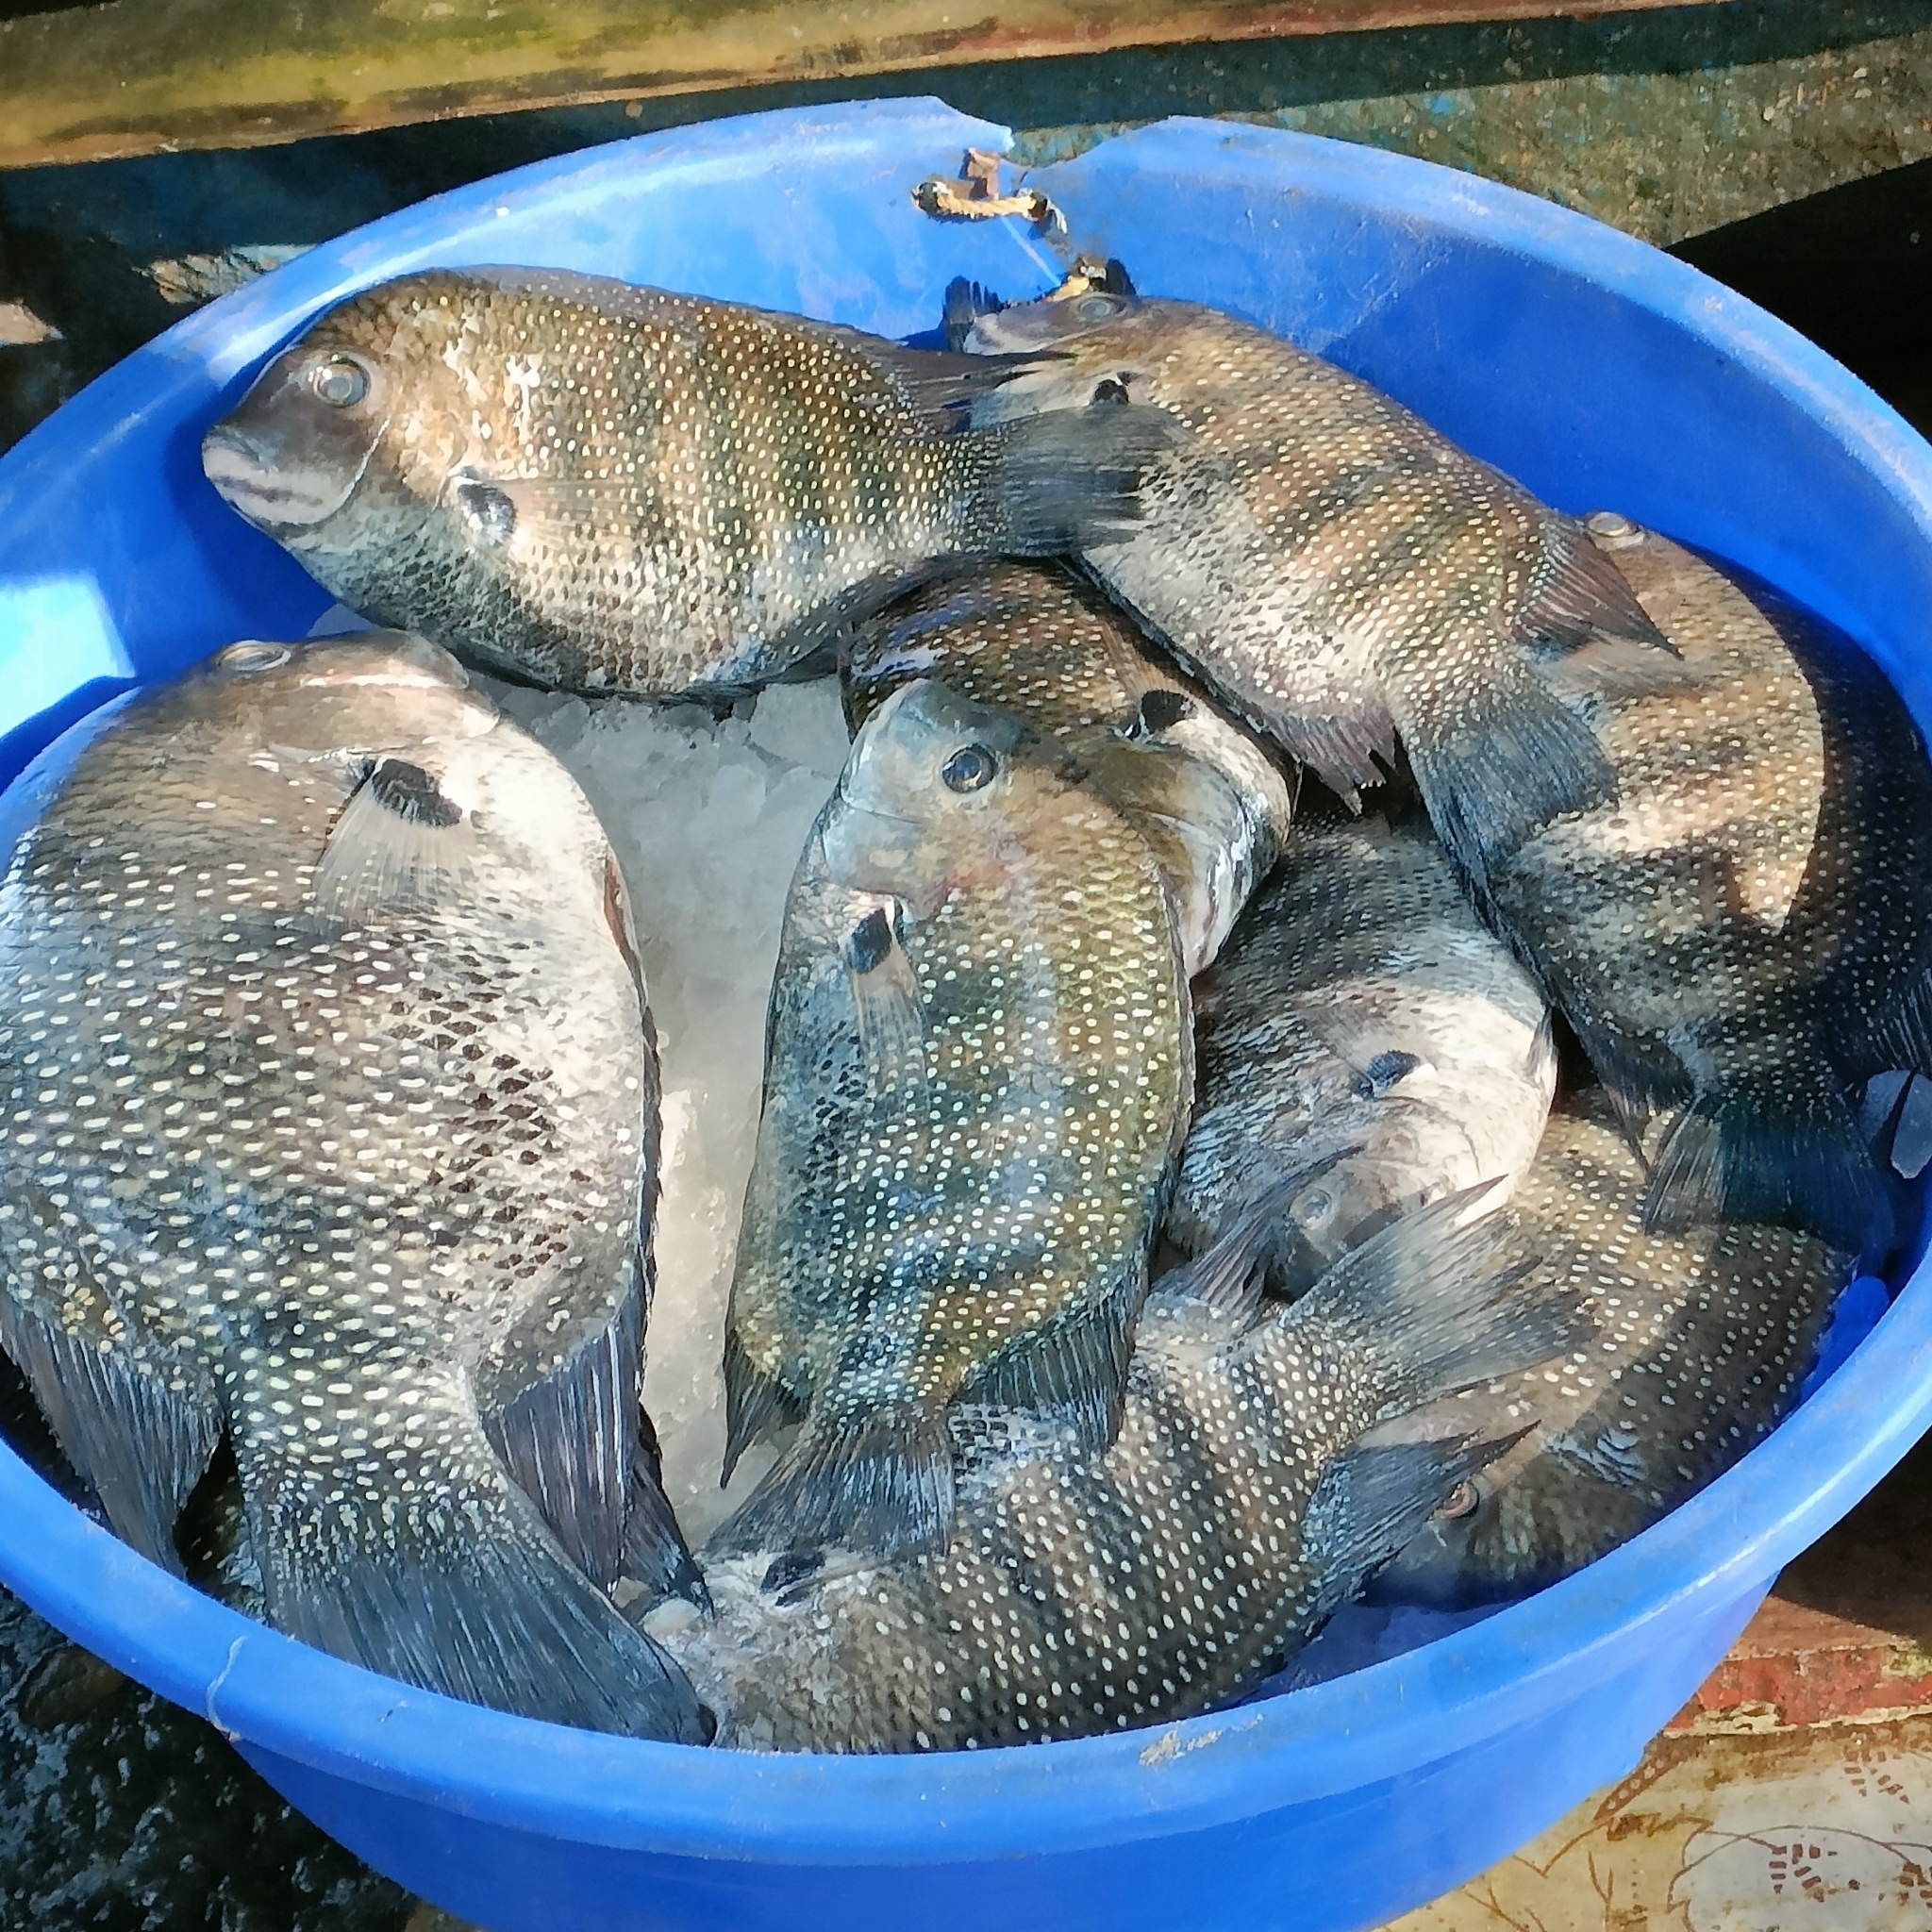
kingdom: Animalia
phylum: Chordata
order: Perciformes
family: Cichlidae
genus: Etroplus
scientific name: Etroplus suratensis
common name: Green chromide
